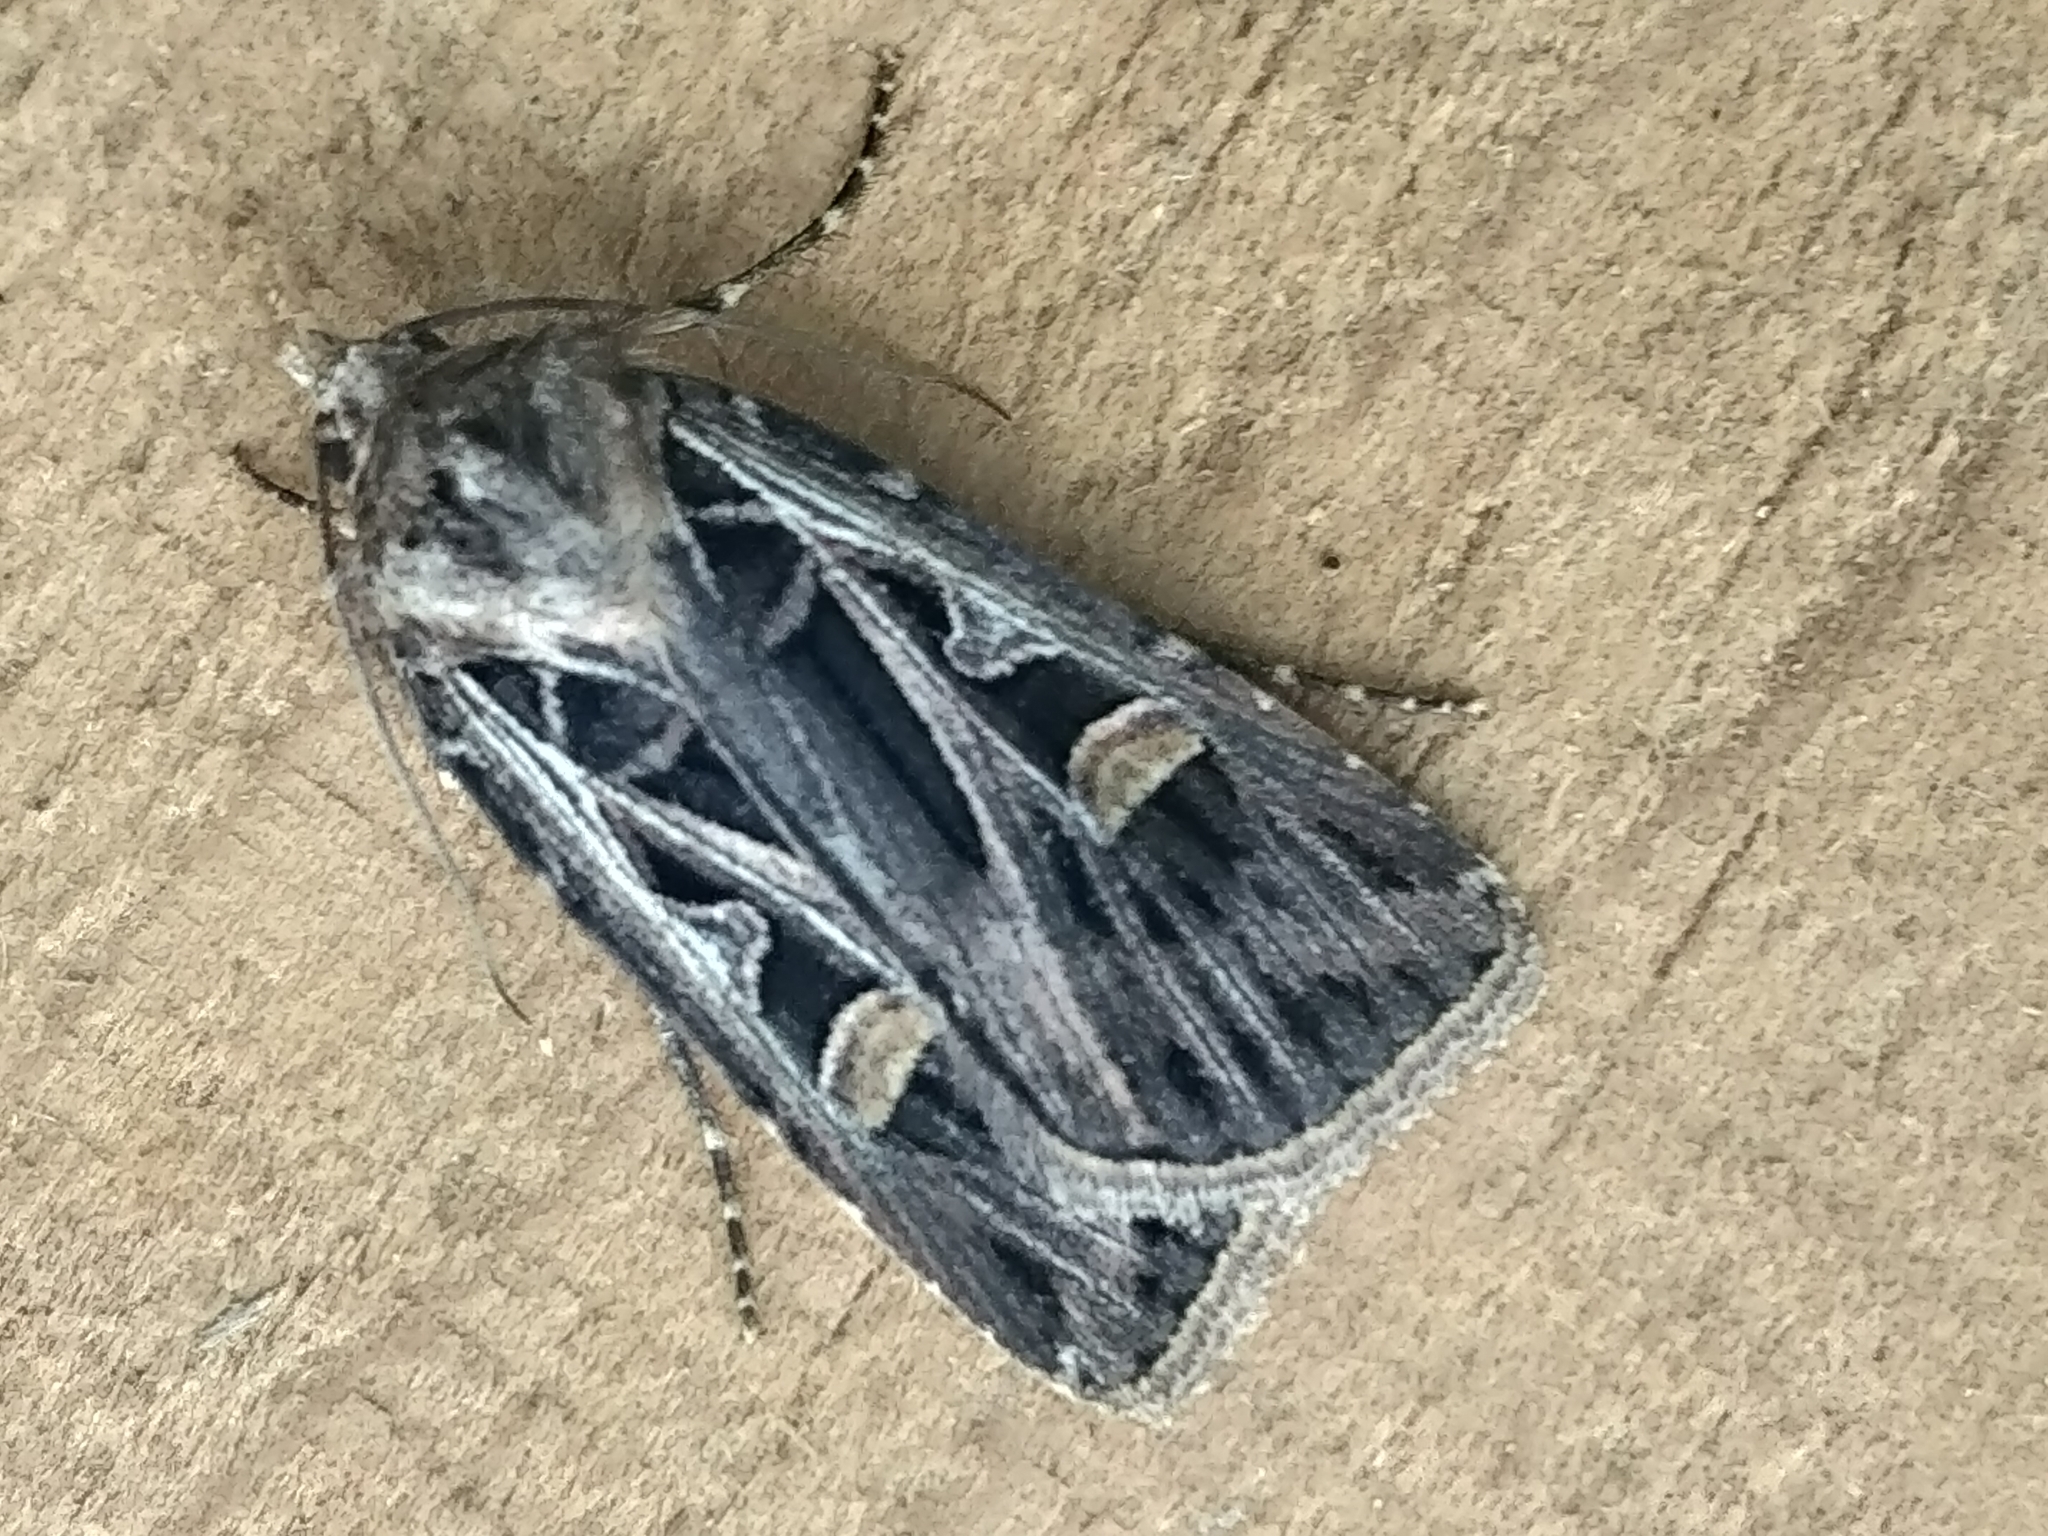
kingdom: Animalia
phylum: Arthropoda
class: Insecta
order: Lepidoptera
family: Noctuidae
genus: Feltia
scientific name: Feltia jaculifera
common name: Dingy cutworm moth
